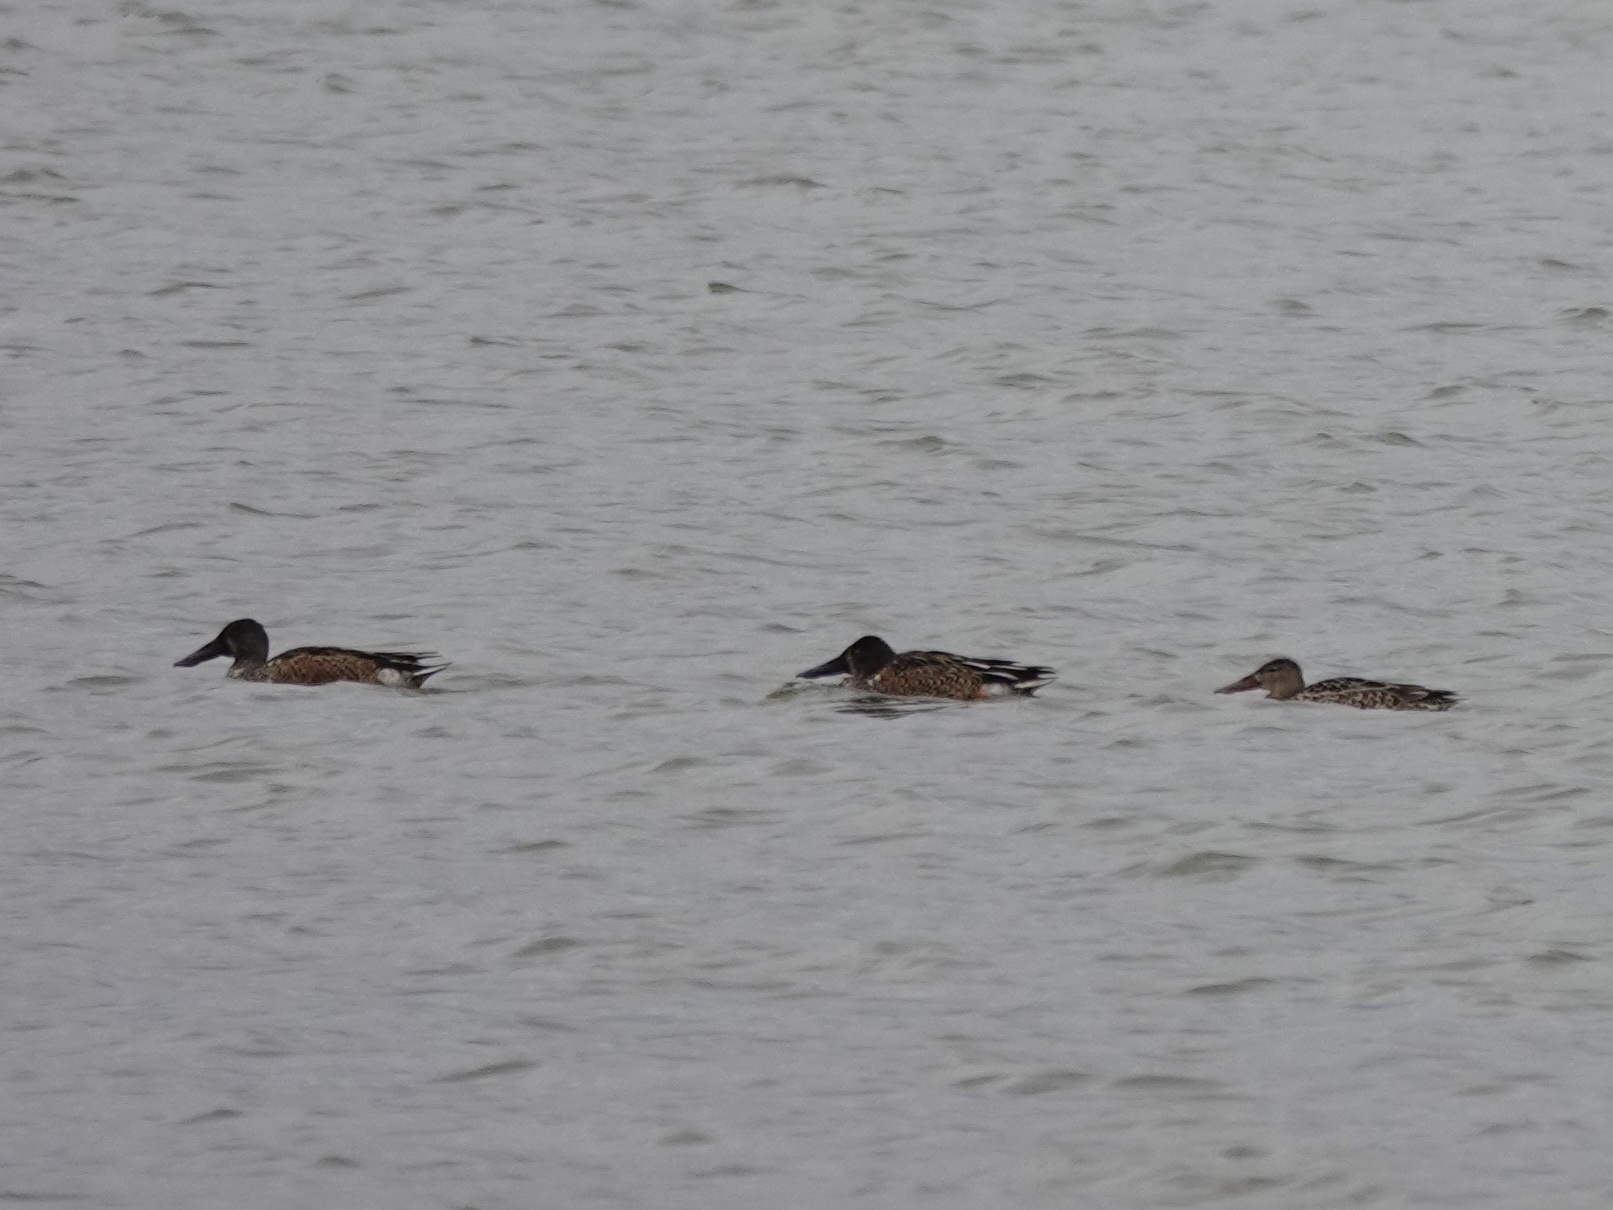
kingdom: Animalia
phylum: Chordata
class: Aves
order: Anseriformes
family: Anatidae
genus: Spatula
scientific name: Spatula clypeata
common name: Northern shoveler
